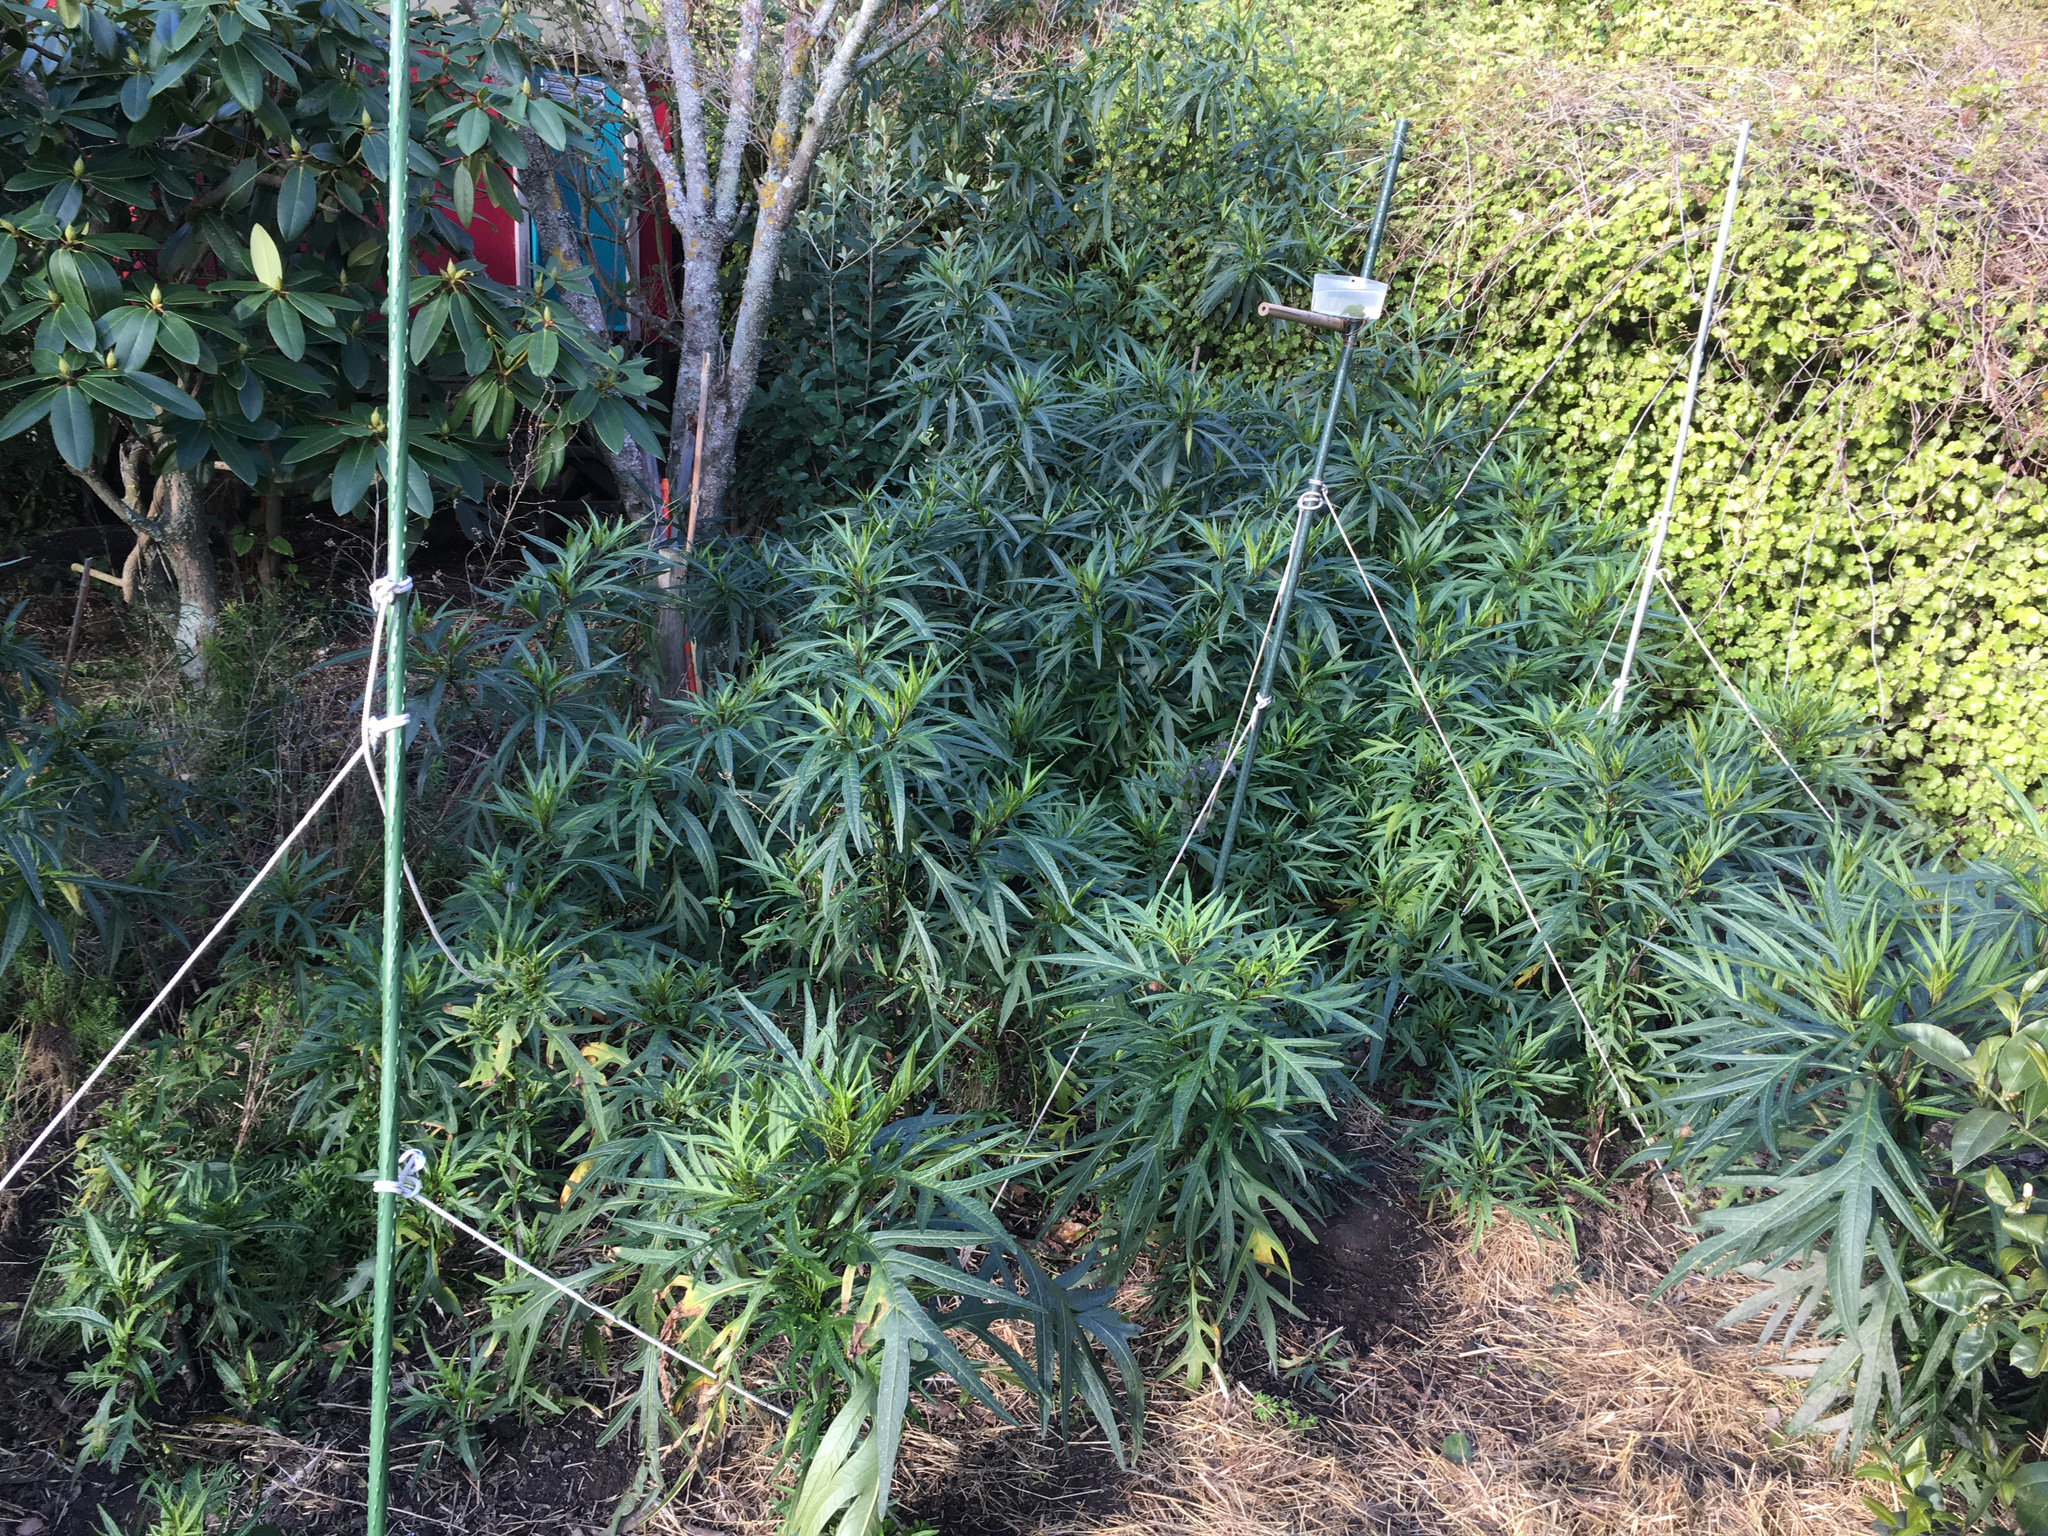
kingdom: Plantae
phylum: Tracheophyta
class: Magnoliopsida
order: Solanales
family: Solanaceae
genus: Solanum
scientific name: Solanum laciniatum
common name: Kangaroo-apple
